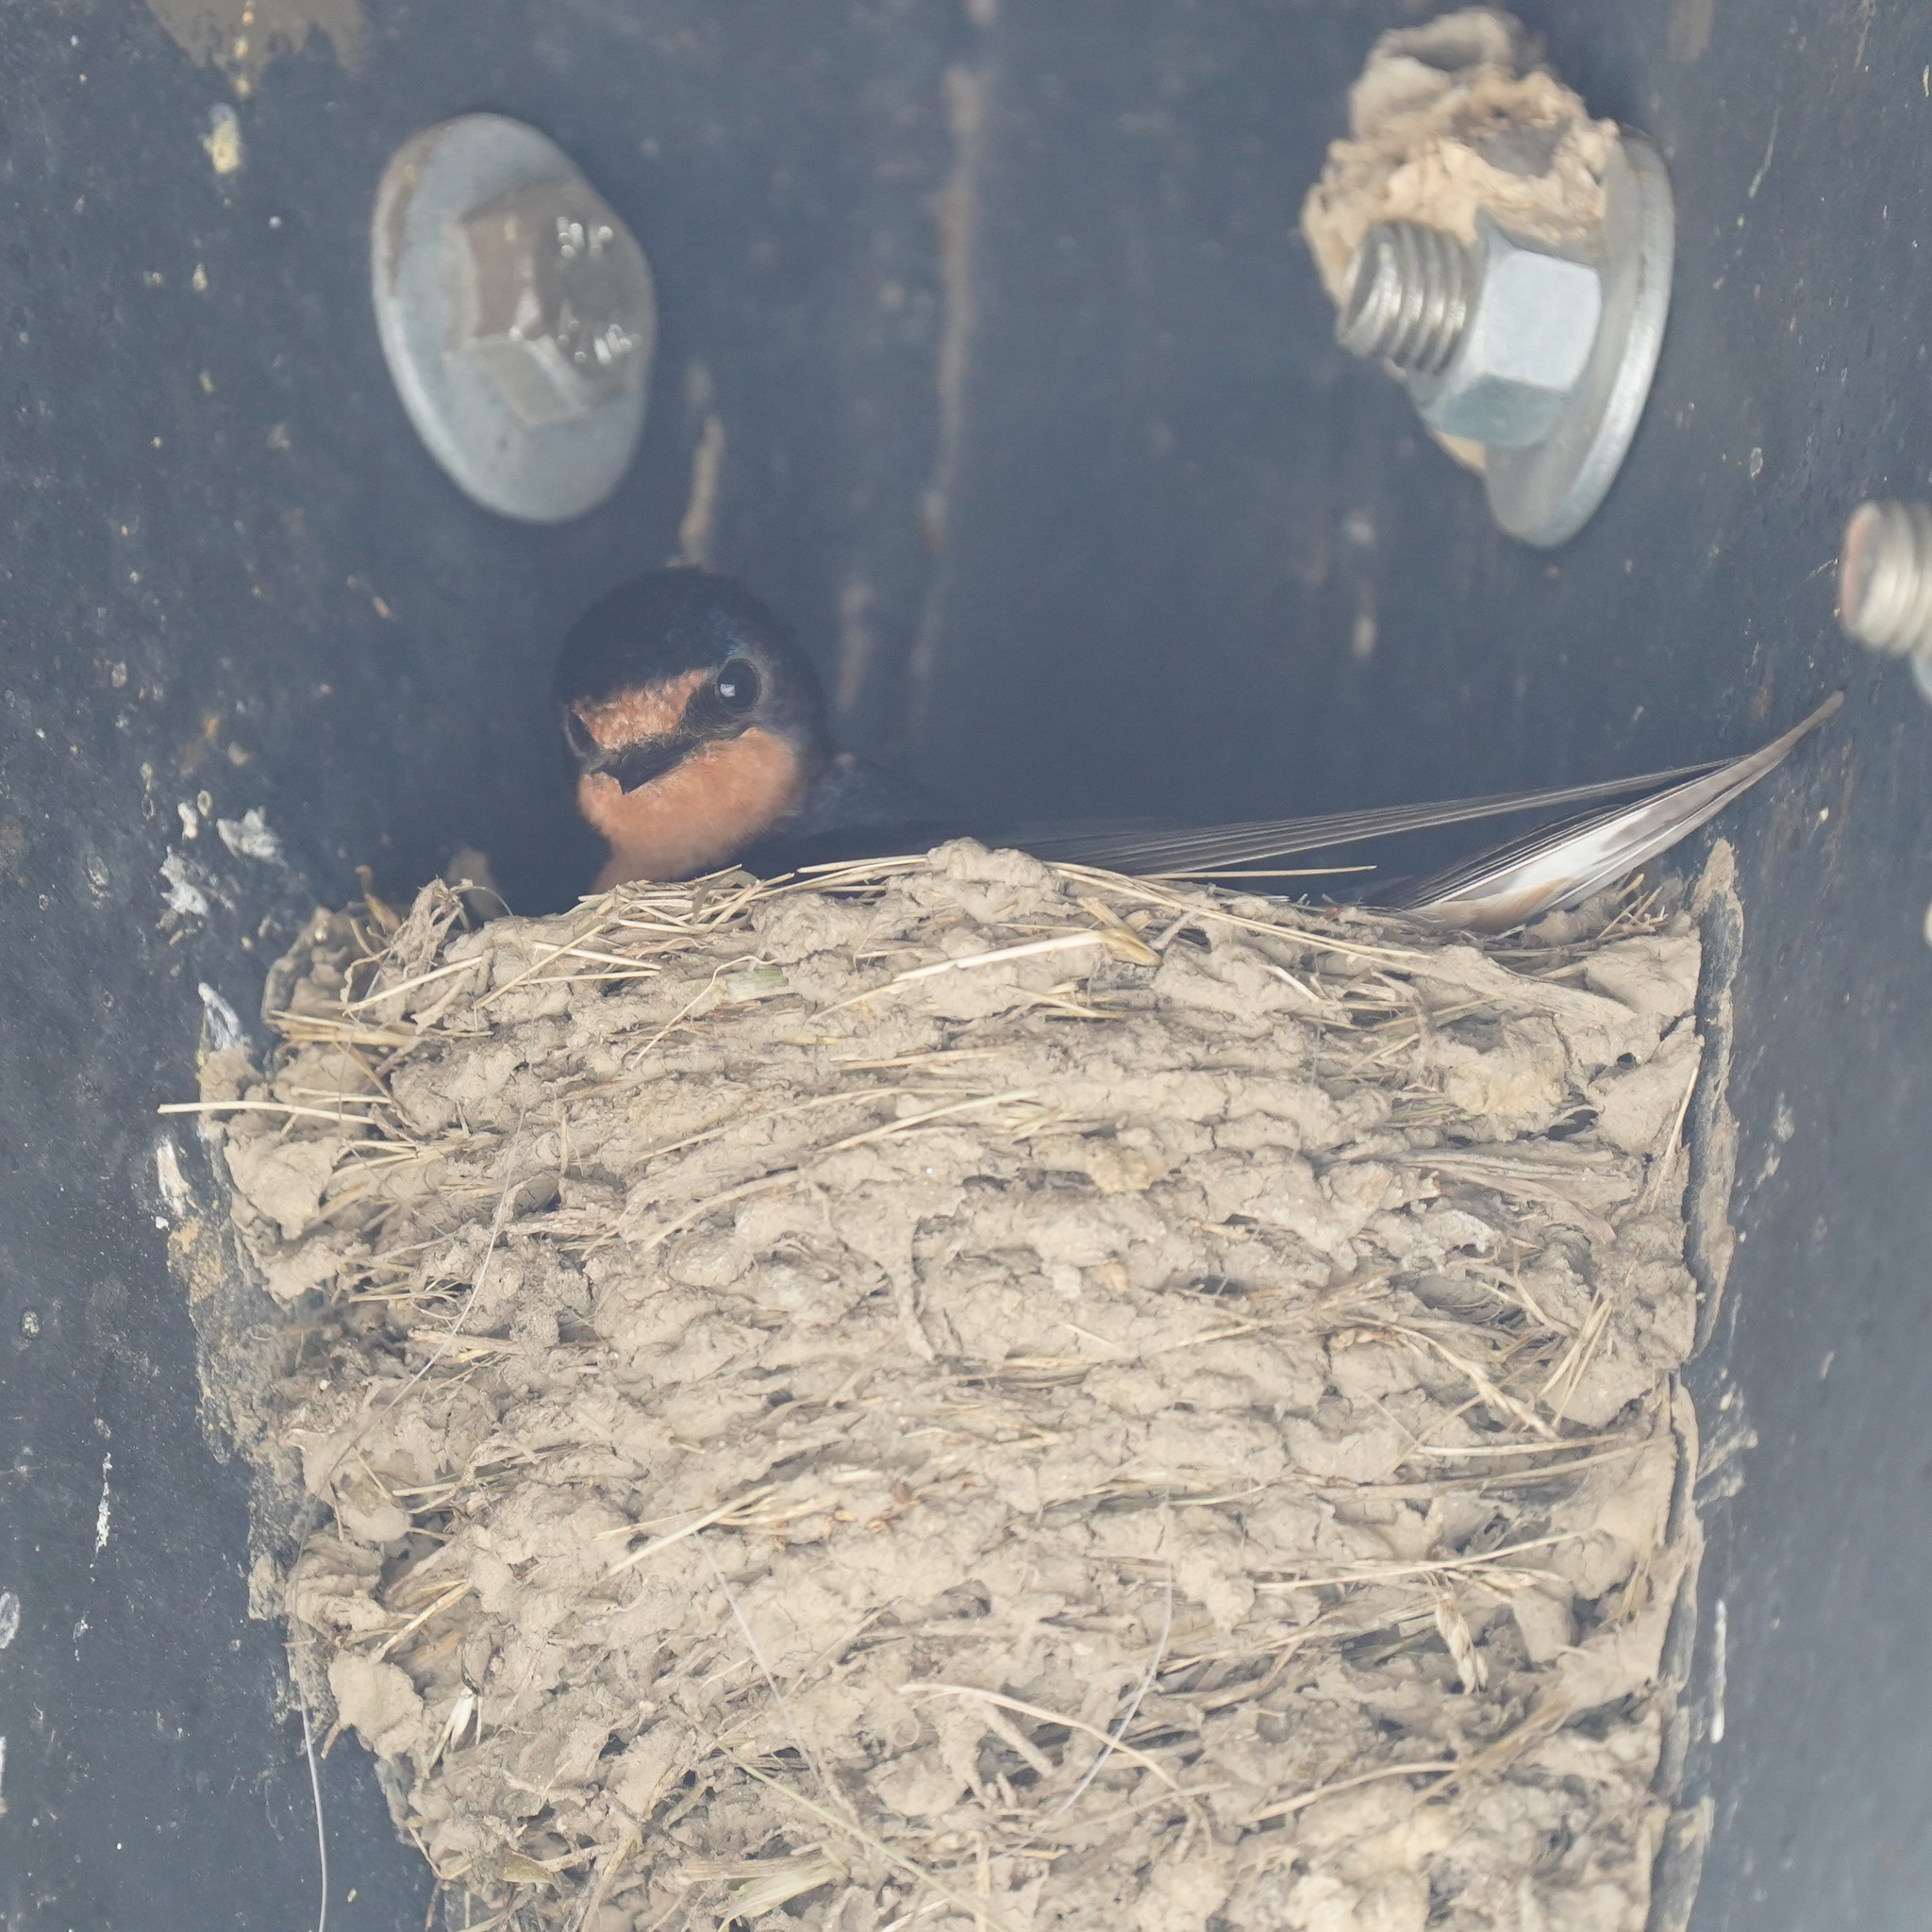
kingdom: Animalia
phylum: Chordata
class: Aves
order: Passeriformes
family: Hirundinidae
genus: Hirundo
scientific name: Hirundo rustica
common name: Barn swallow
